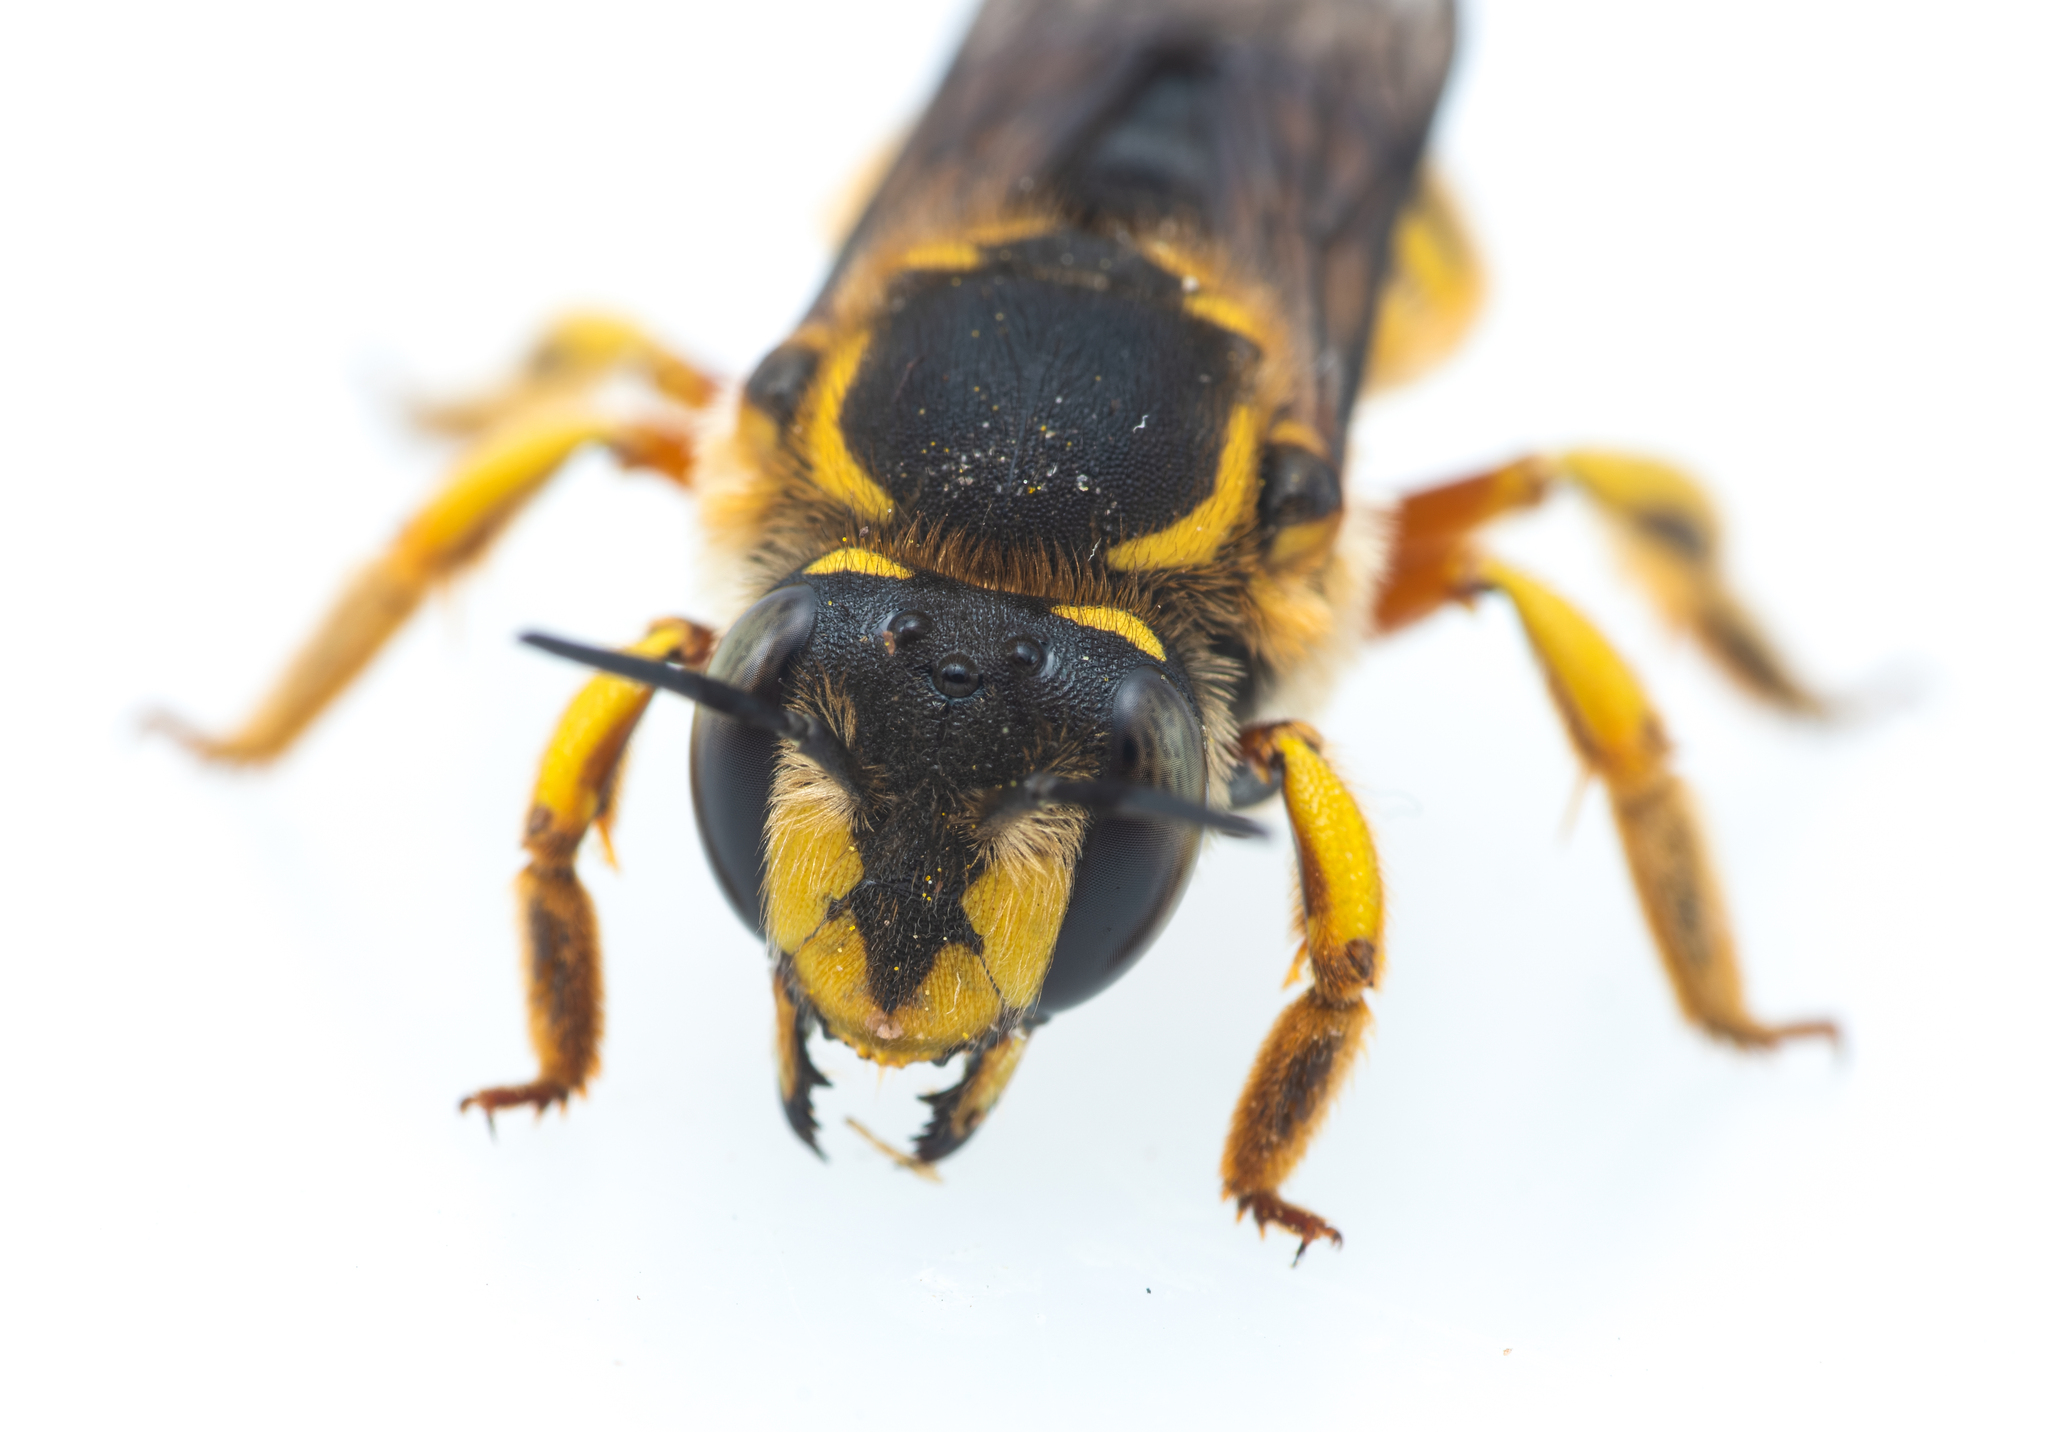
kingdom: Animalia
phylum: Arthropoda
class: Insecta
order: Hymenoptera
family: Megachilidae
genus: Anthidium
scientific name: Anthidium manicatum
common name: Wool carder bee
